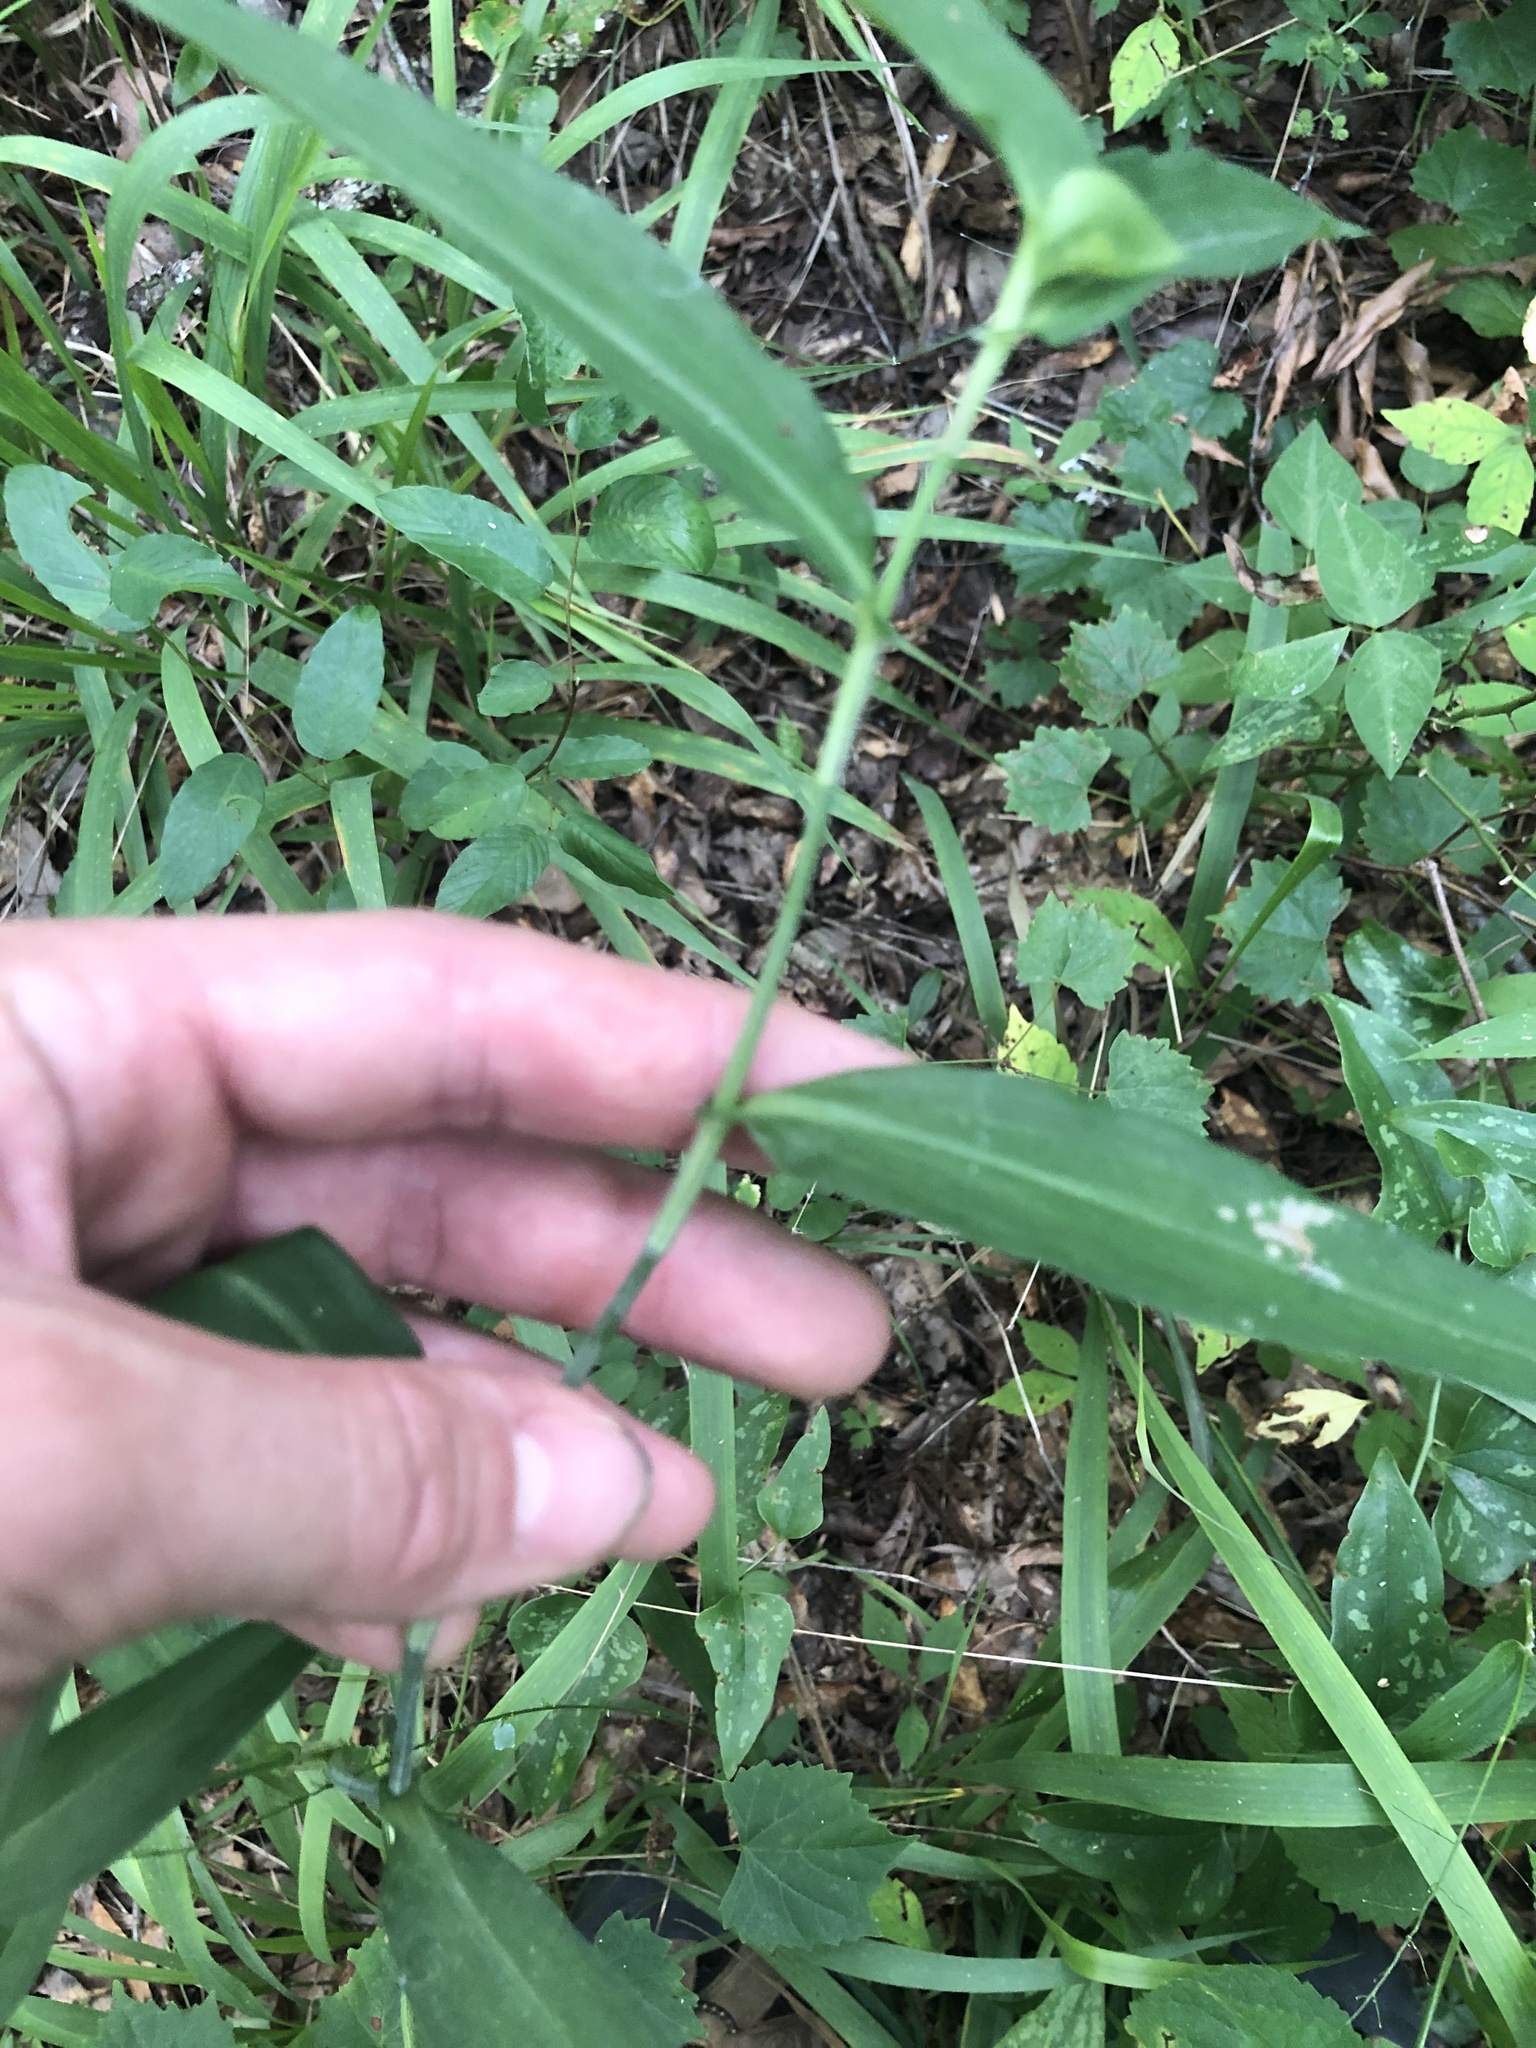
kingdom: Plantae
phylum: Tracheophyta
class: Liliopsida
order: Commelinales
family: Commelinaceae
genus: Commelina
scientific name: Commelina erecta
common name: Blousel blommetjie
